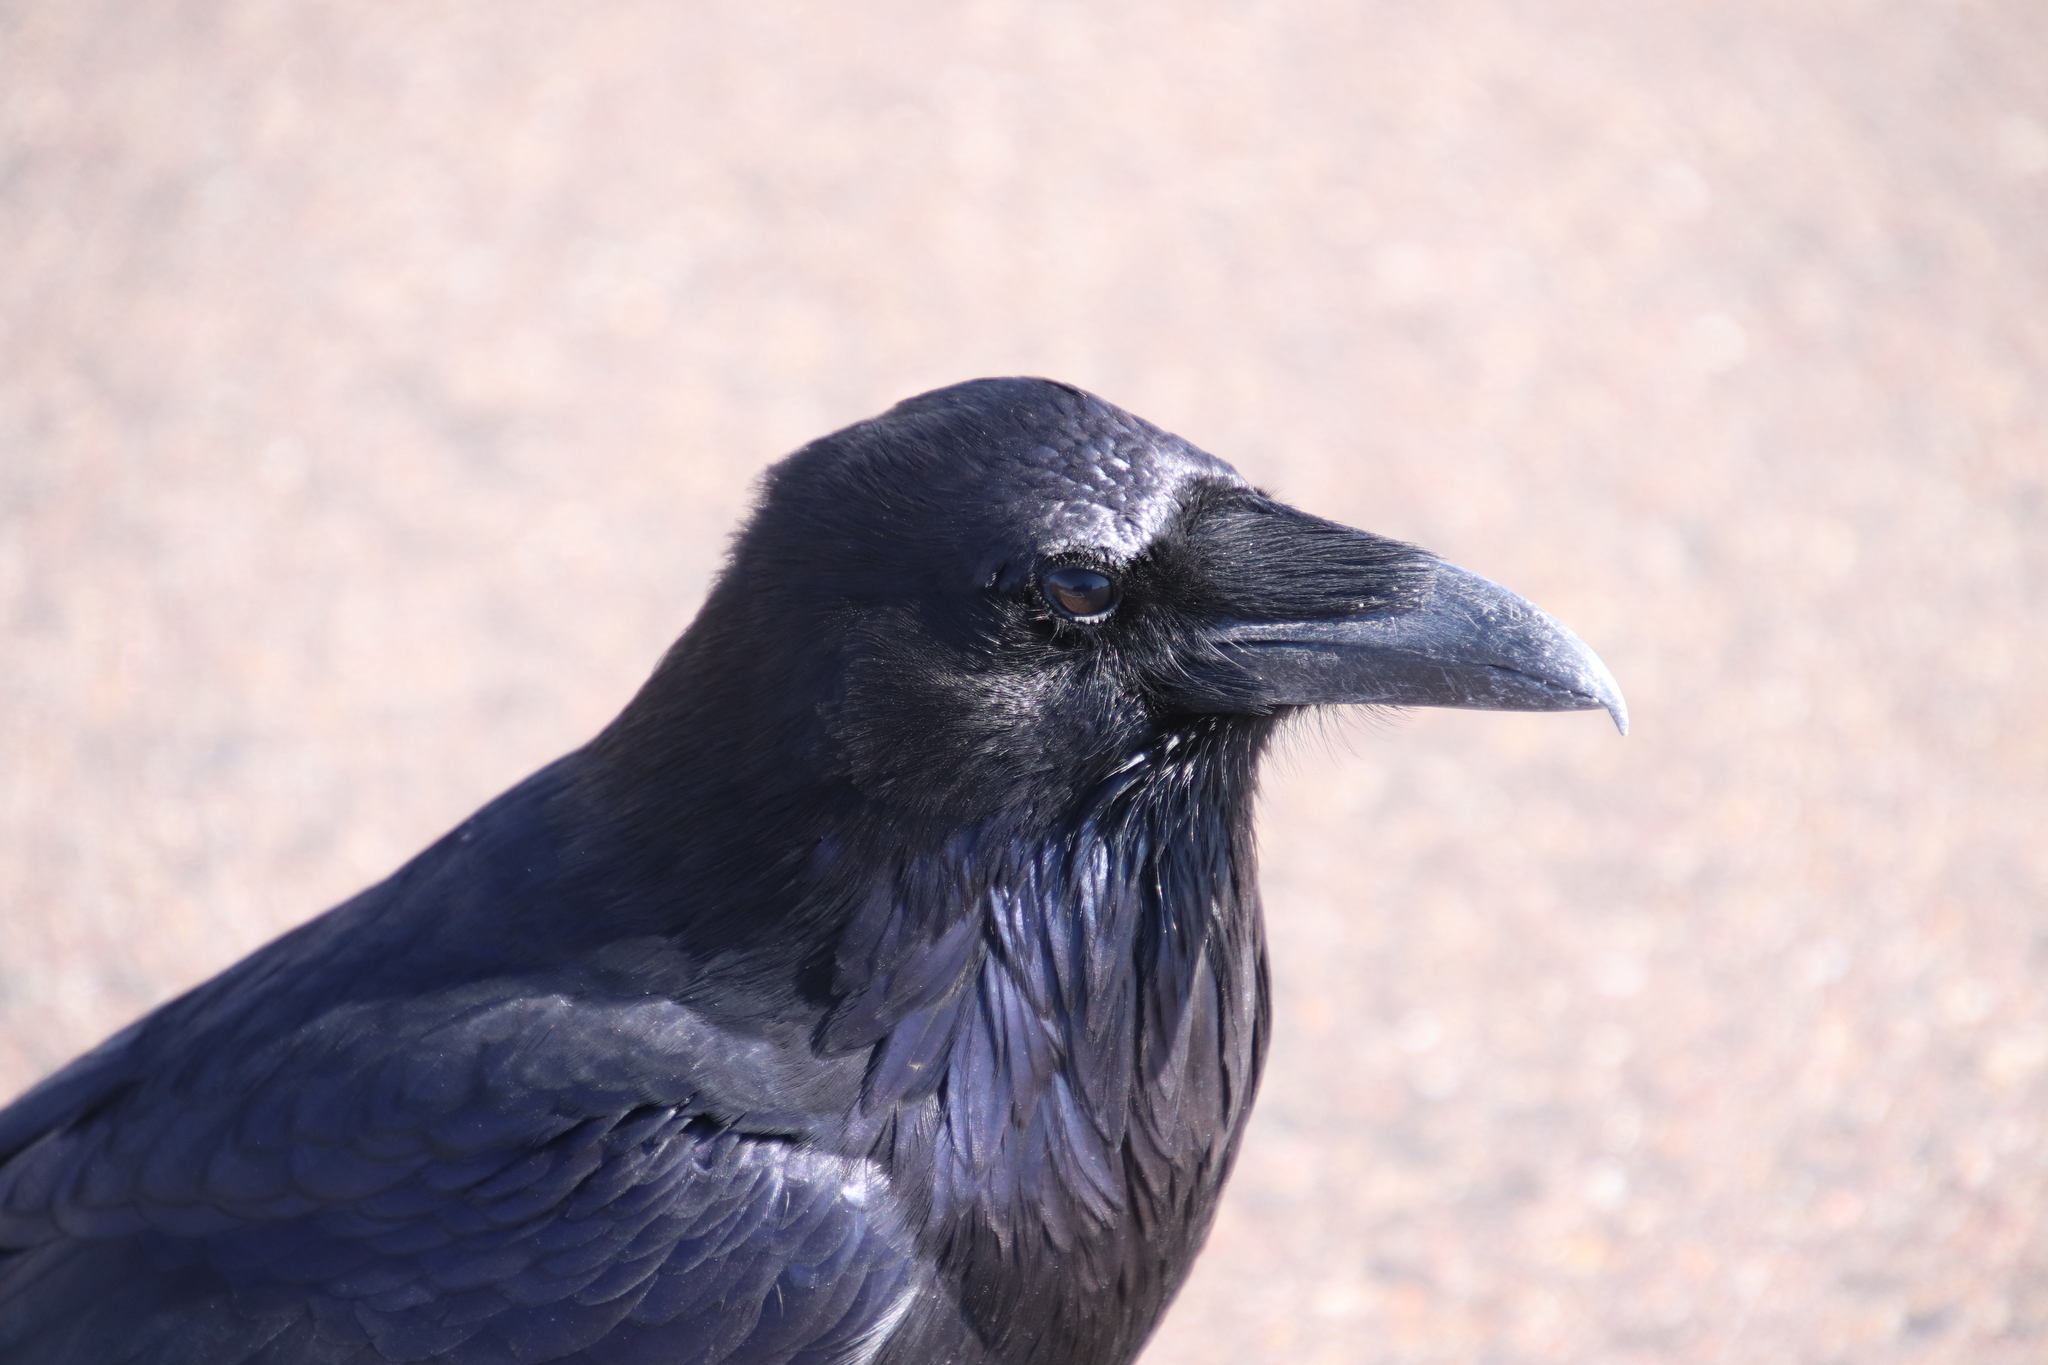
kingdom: Animalia
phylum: Chordata
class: Aves
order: Passeriformes
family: Corvidae
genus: Corvus
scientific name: Corvus corax
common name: Common raven
